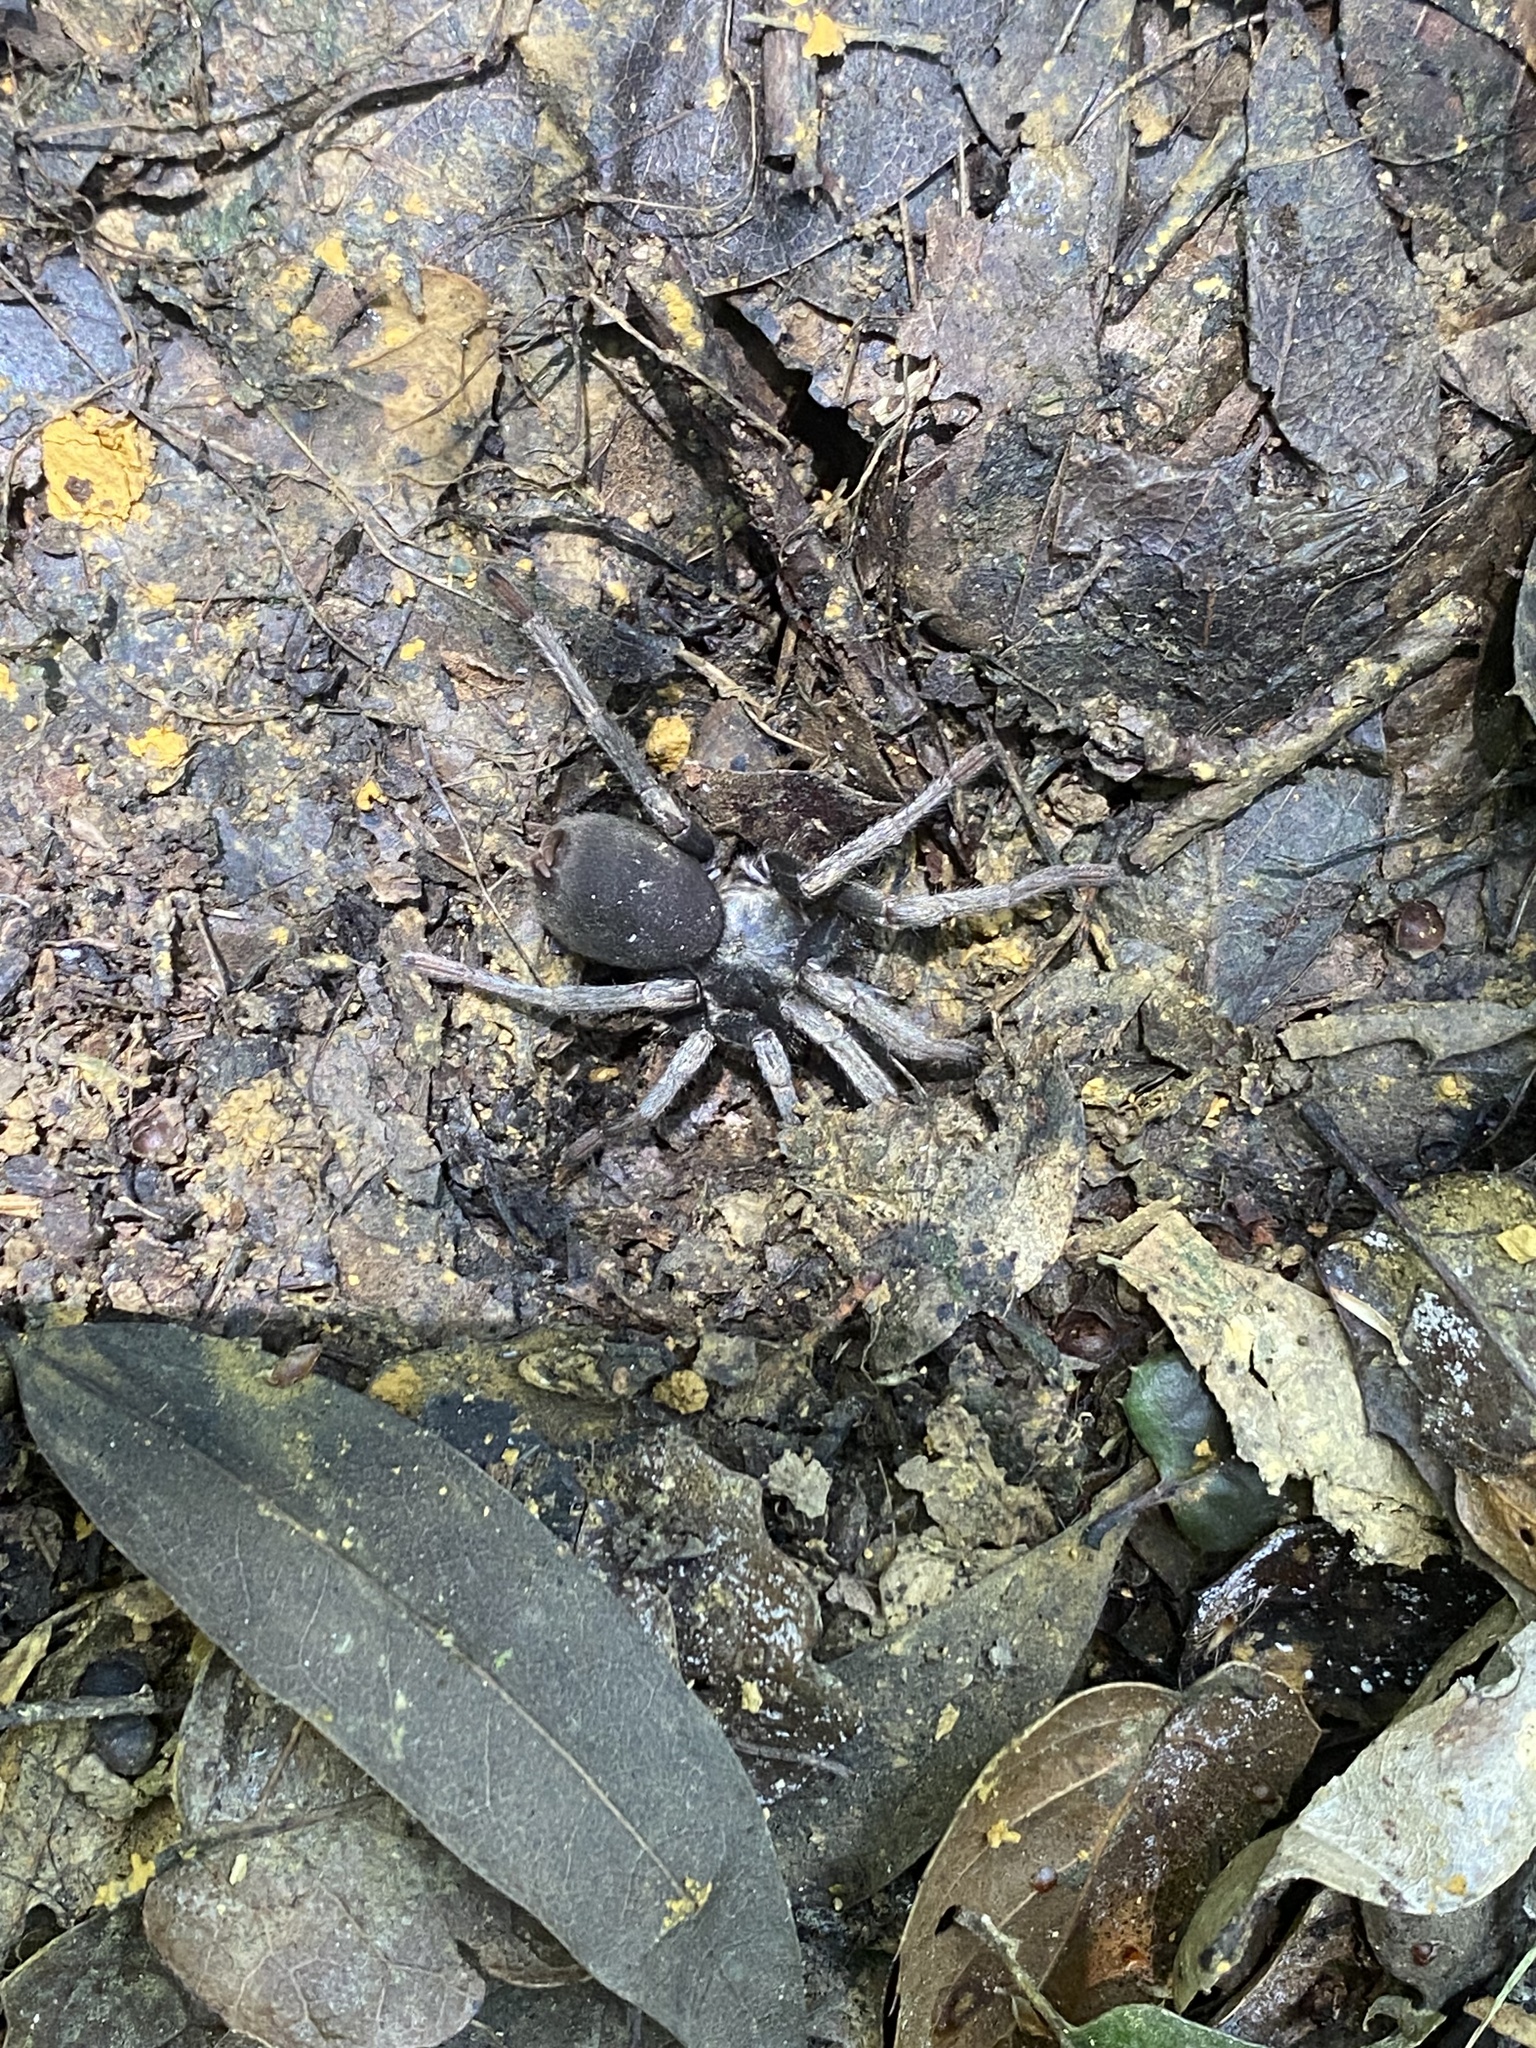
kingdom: Animalia
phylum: Arthropoda
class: Arachnida
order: Araneae
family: Nemesiidae
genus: Calisoga
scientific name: Calisoga longitarsis
